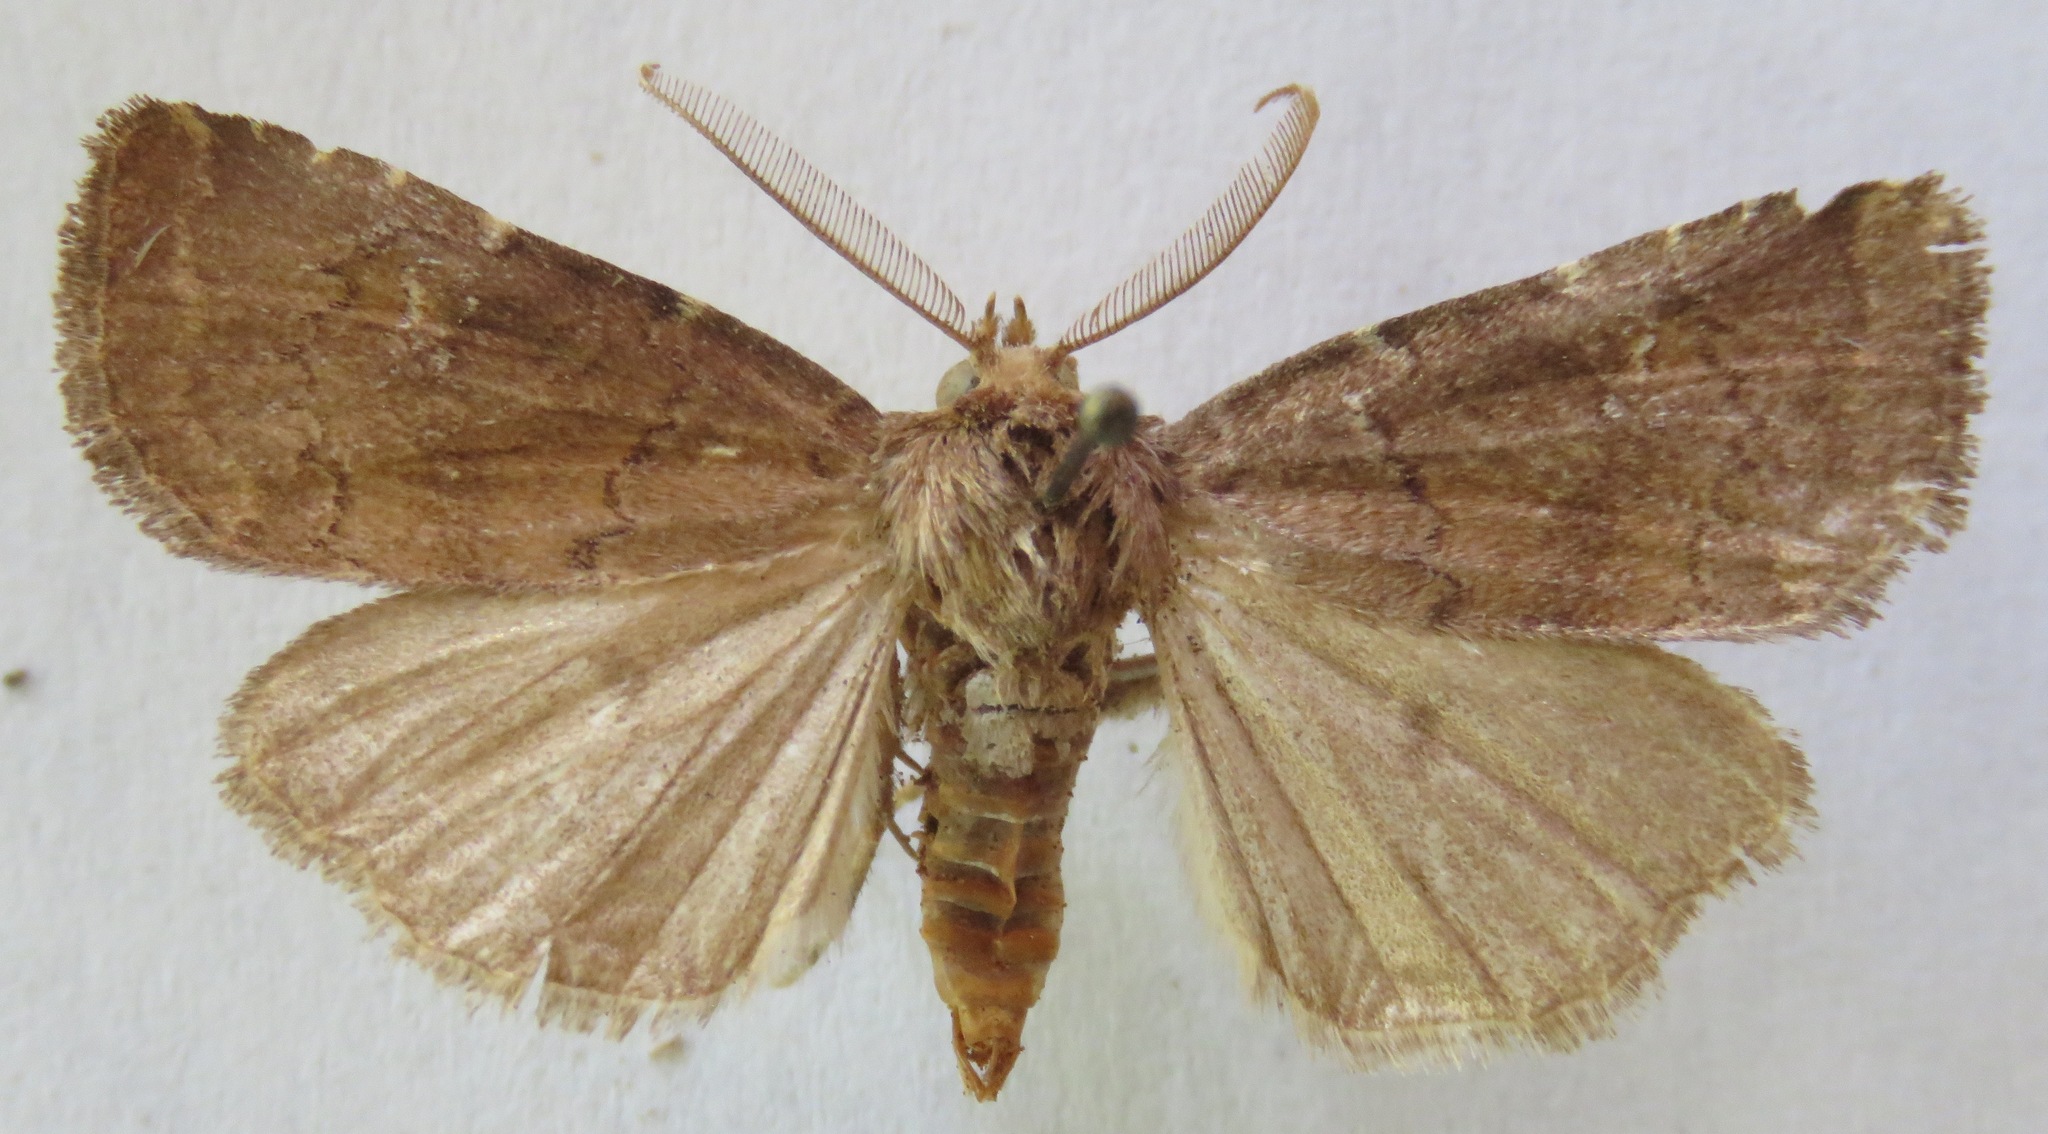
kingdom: Animalia
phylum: Arthropoda
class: Insecta
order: Lepidoptera
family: Noctuidae
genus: Charanyca
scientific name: Charanyca ferruginea
